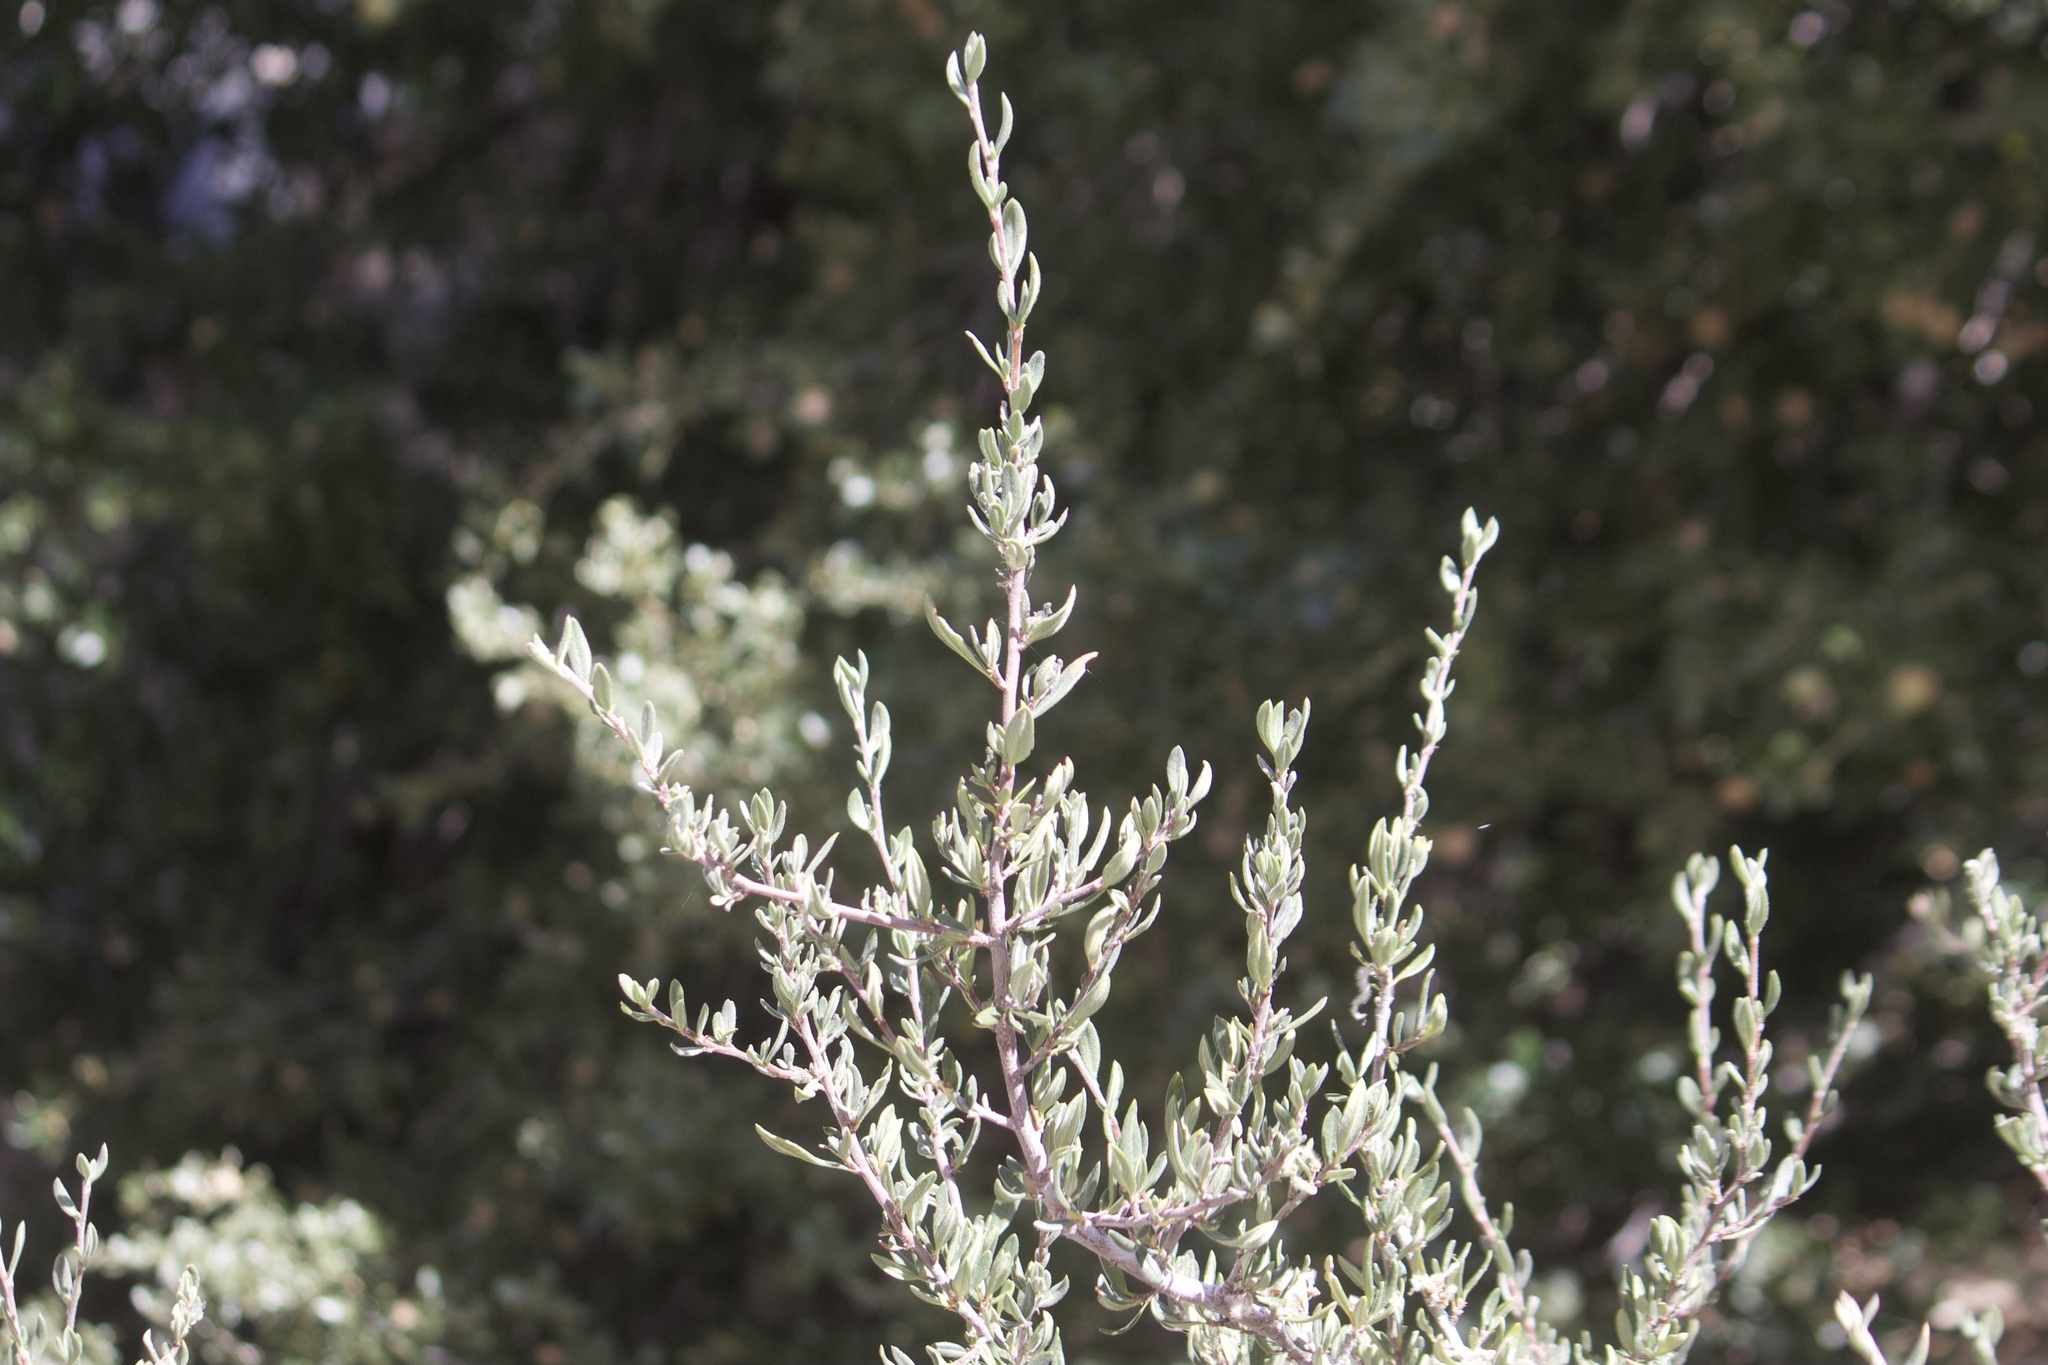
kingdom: Plantae
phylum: Tracheophyta
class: Magnoliopsida
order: Rosales
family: Rosaceae
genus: Cercocarpus
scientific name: Cercocarpus ledifolius
